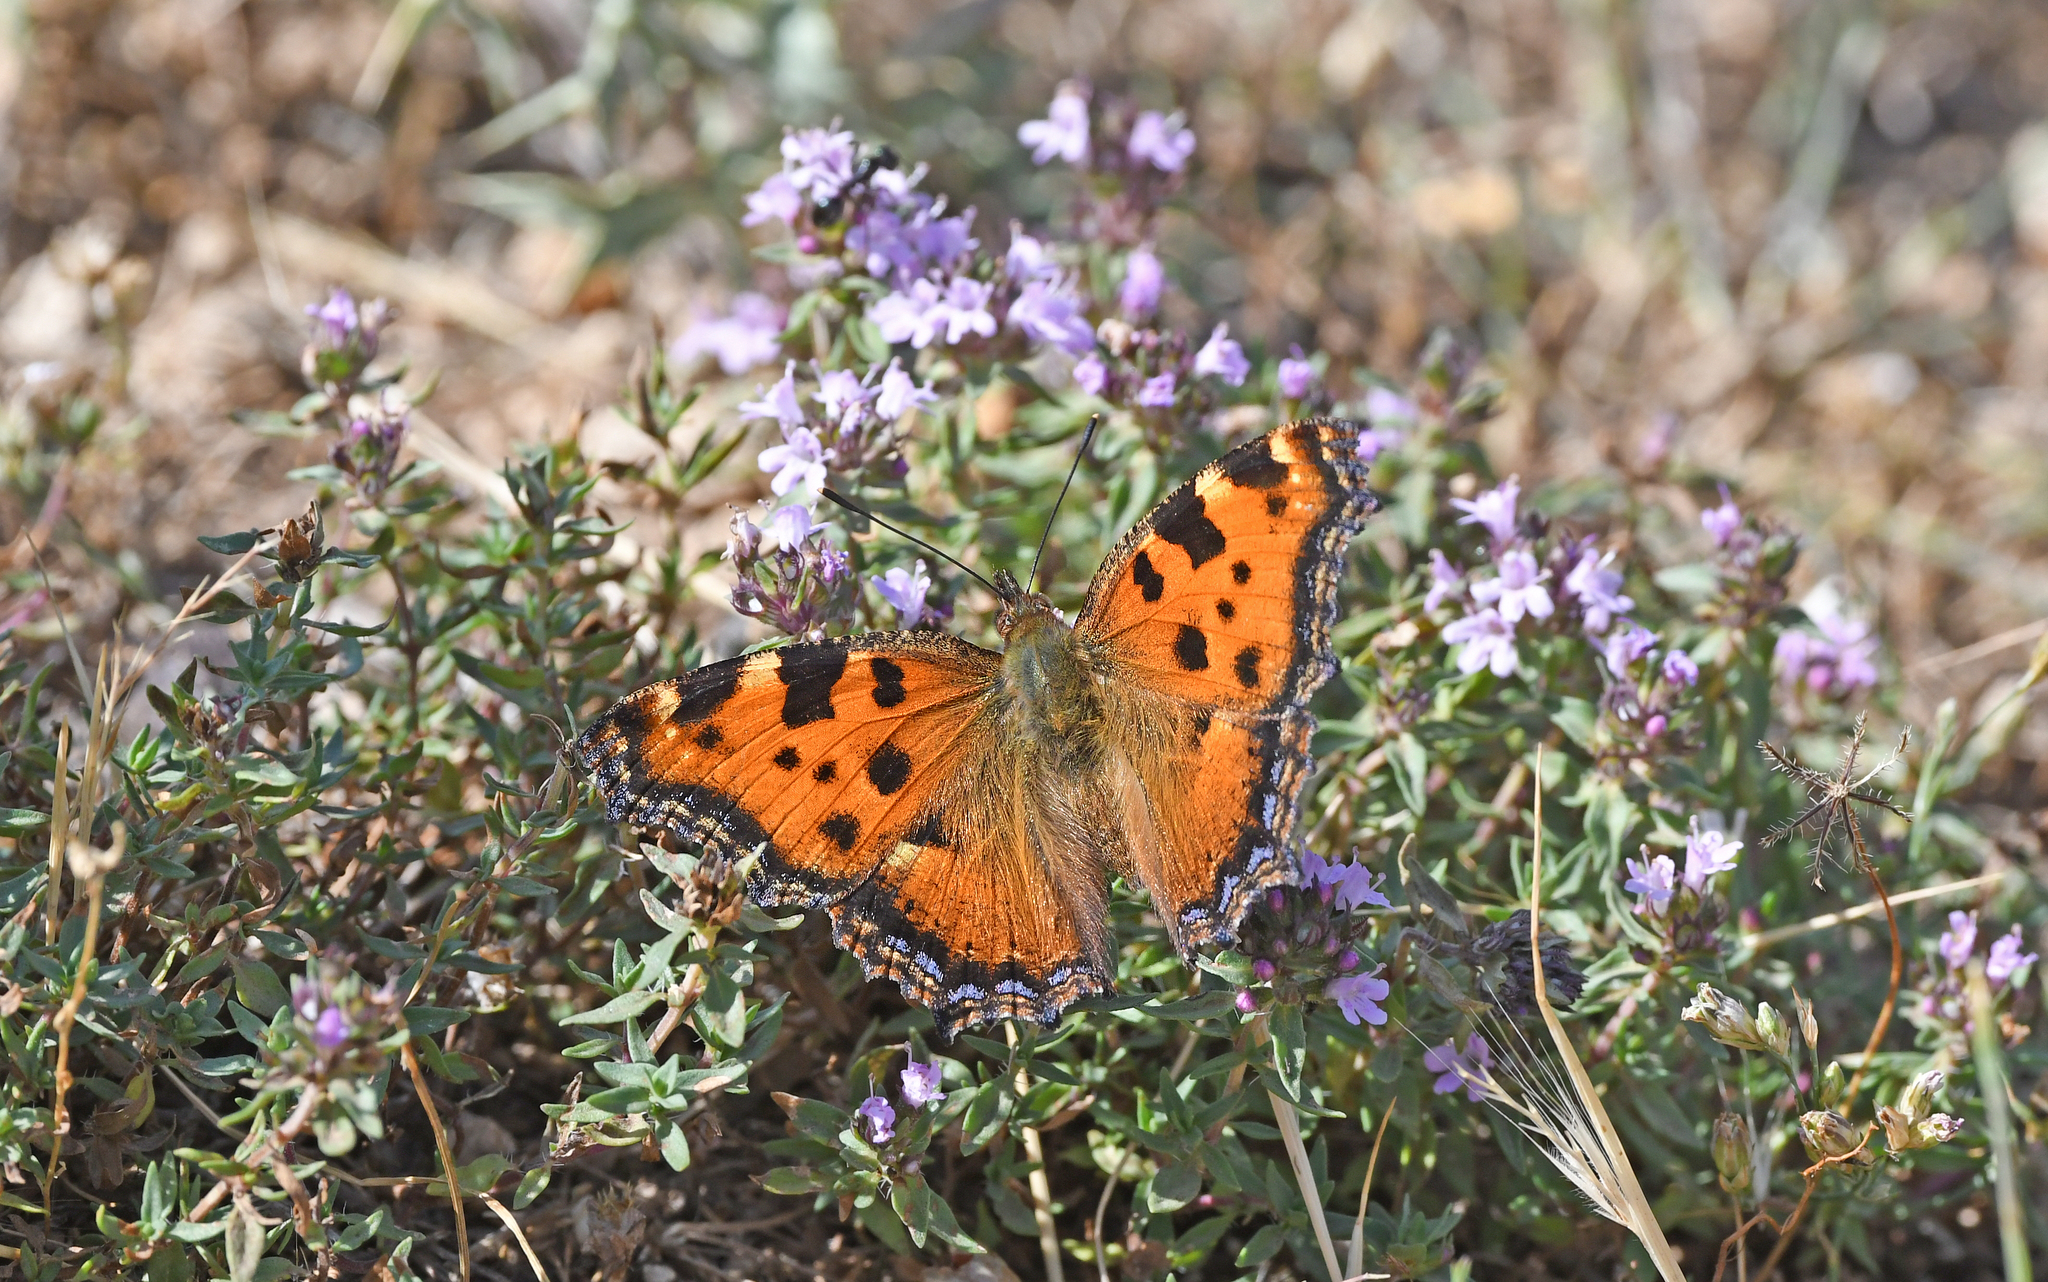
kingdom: Animalia
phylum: Arthropoda
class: Insecta
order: Lepidoptera
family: Nymphalidae
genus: Nymphalis
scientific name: Nymphalis polychloros
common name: Large tortoiseshell
